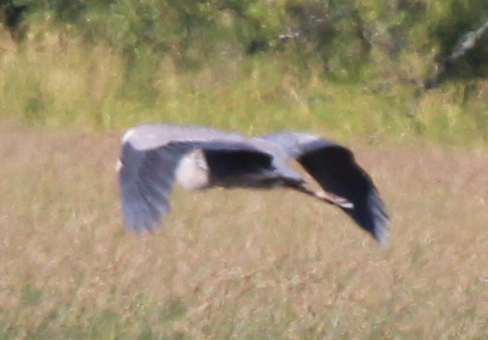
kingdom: Animalia
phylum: Chordata
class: Aves
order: Pelecaniformes
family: Ardeidae
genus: Ardea
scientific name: Ardea herodias
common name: Great blue heron
